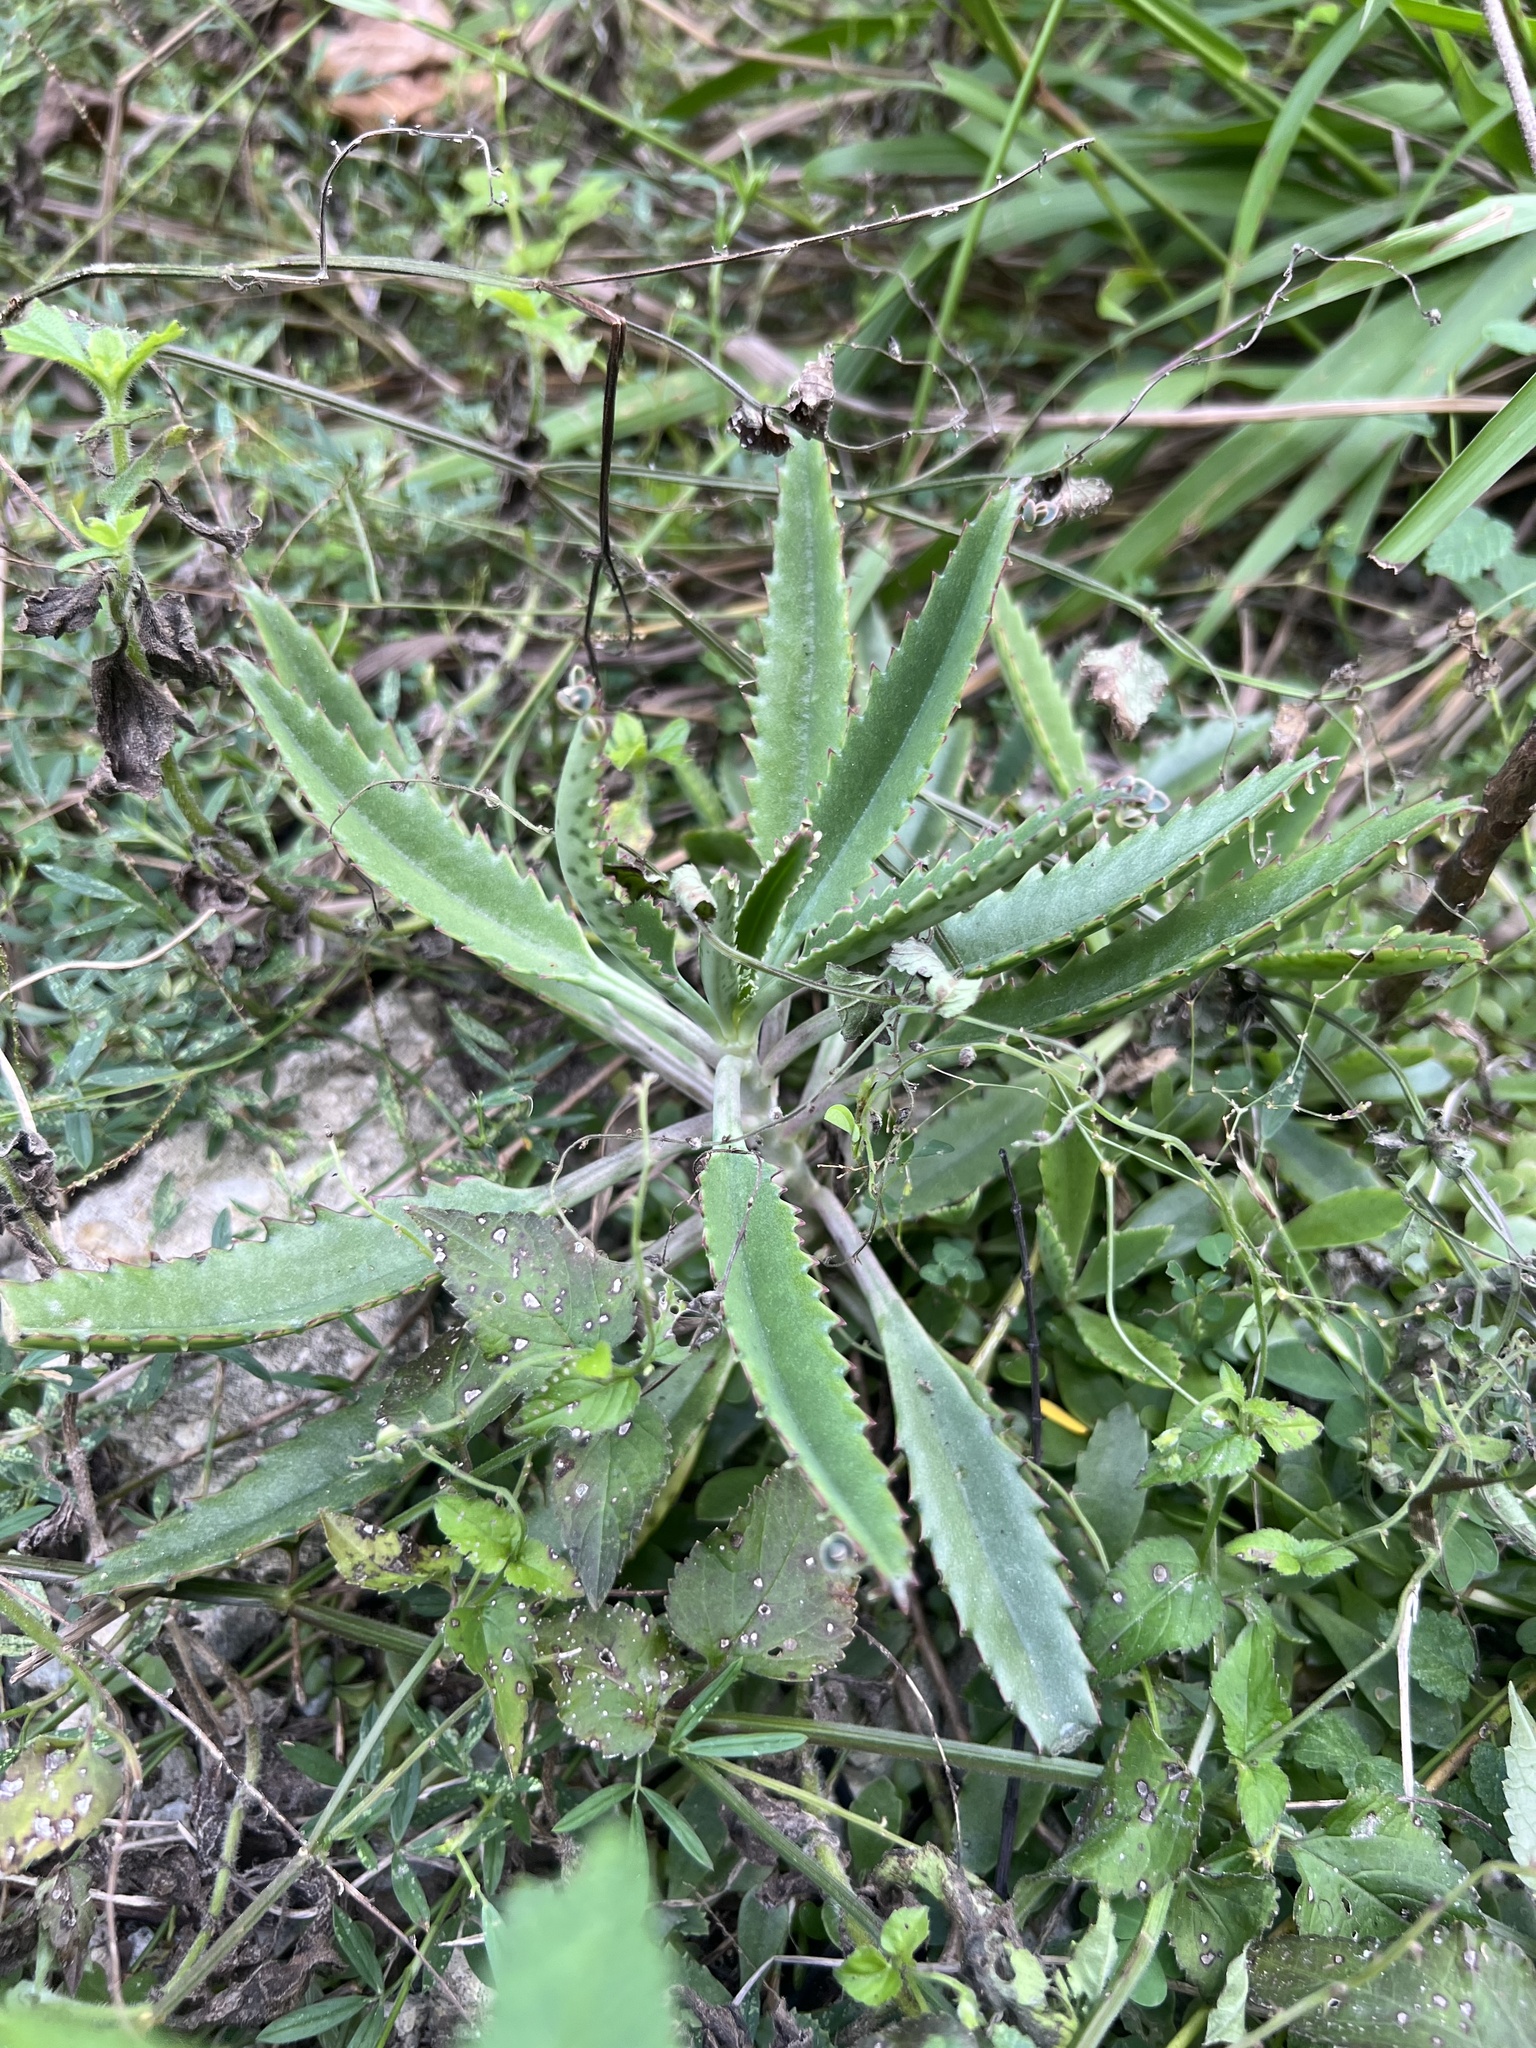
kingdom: Plantae
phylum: Tracheophyta
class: Magnoliopsida
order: Saxifragales
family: Crassulaceae
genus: Kalanchoe
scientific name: Kalanchoe houghtonii
